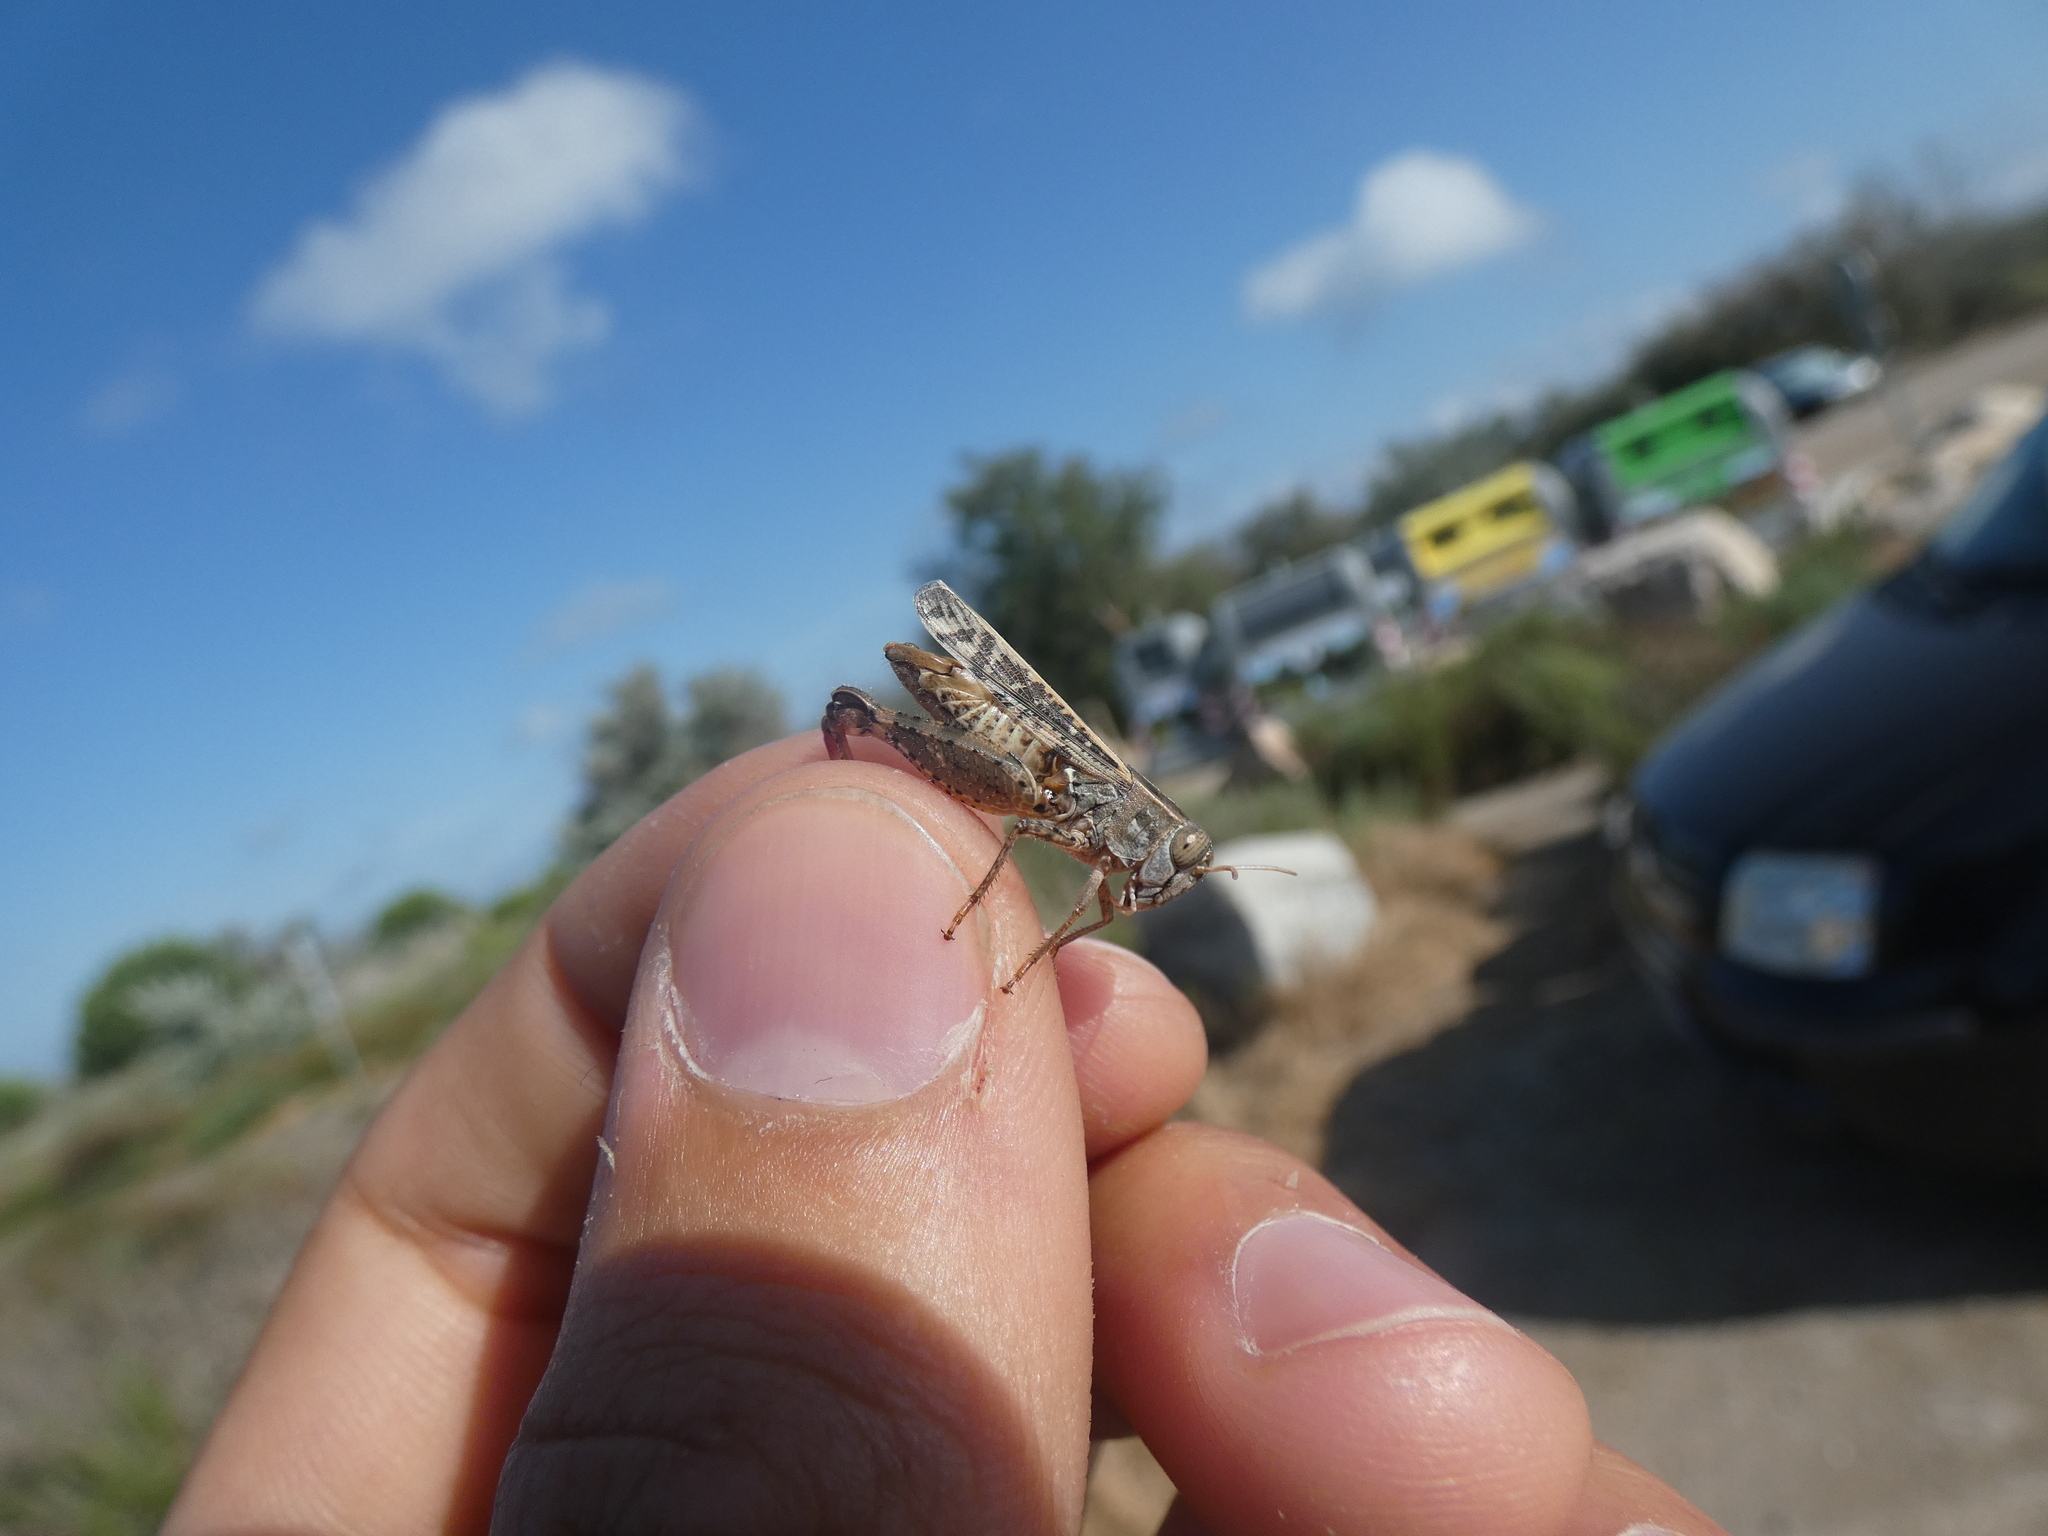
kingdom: Animalia
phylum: Arthropoda
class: Insecta
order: Orthoptera
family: Acrididae
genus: Calliptamus
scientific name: Calliptamus barbarus
